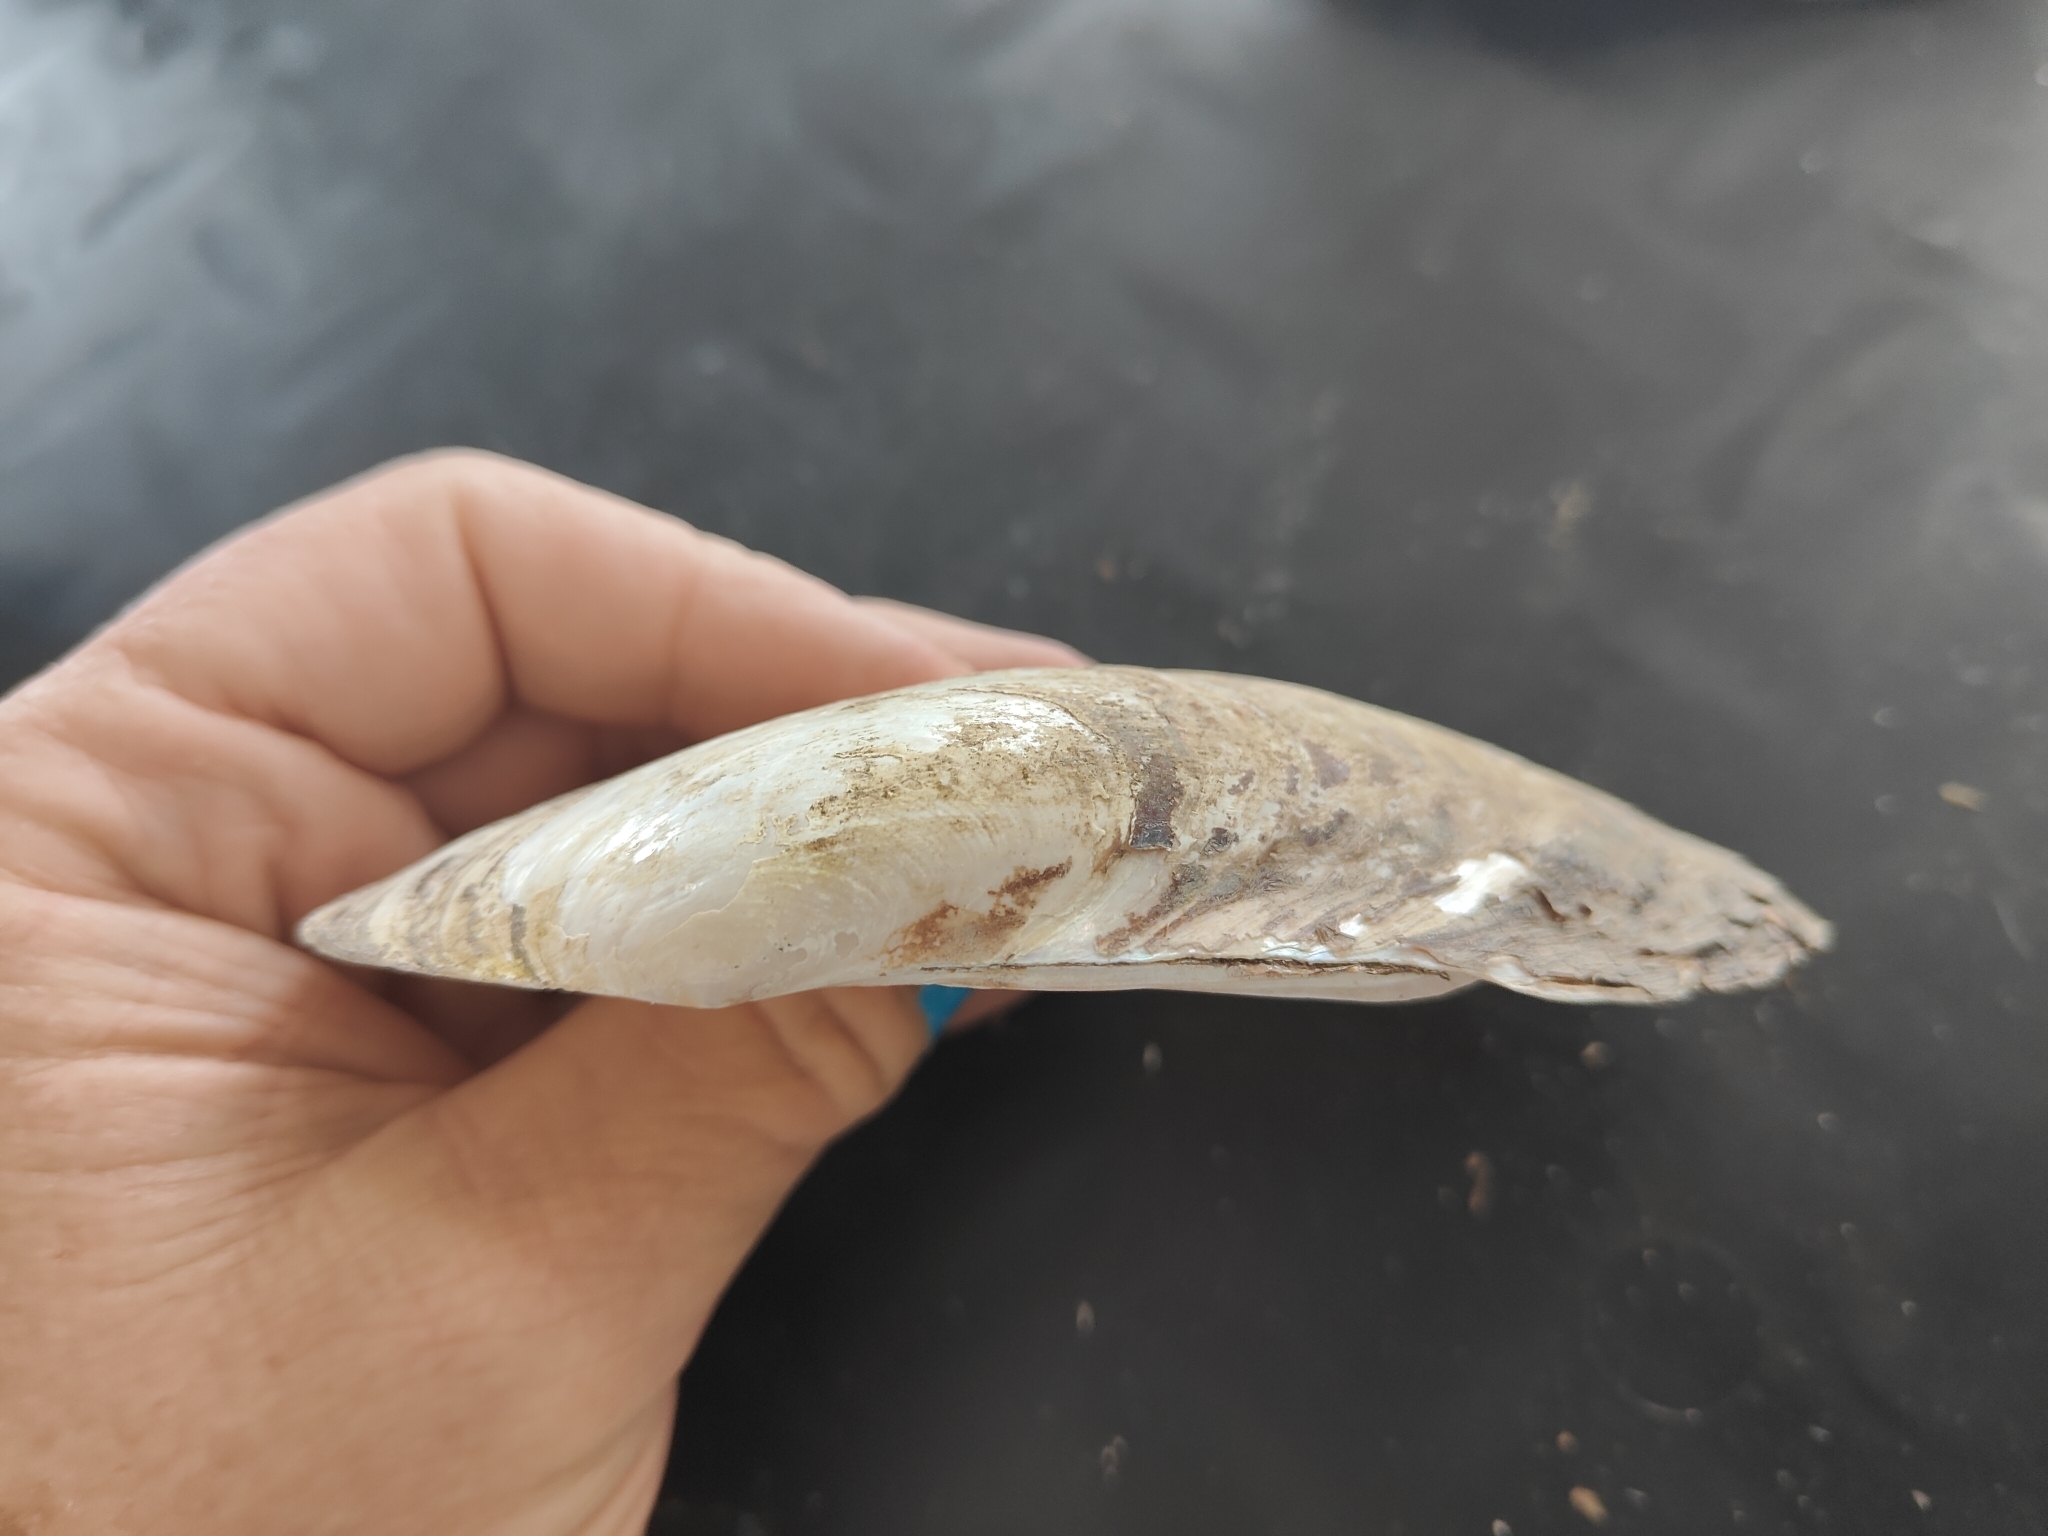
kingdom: Animalia
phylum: Mollusca
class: Bivalvia
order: Unionida
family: Unionidae
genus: Potamilus
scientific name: Potamilus fragilis
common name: Fragile papershell
